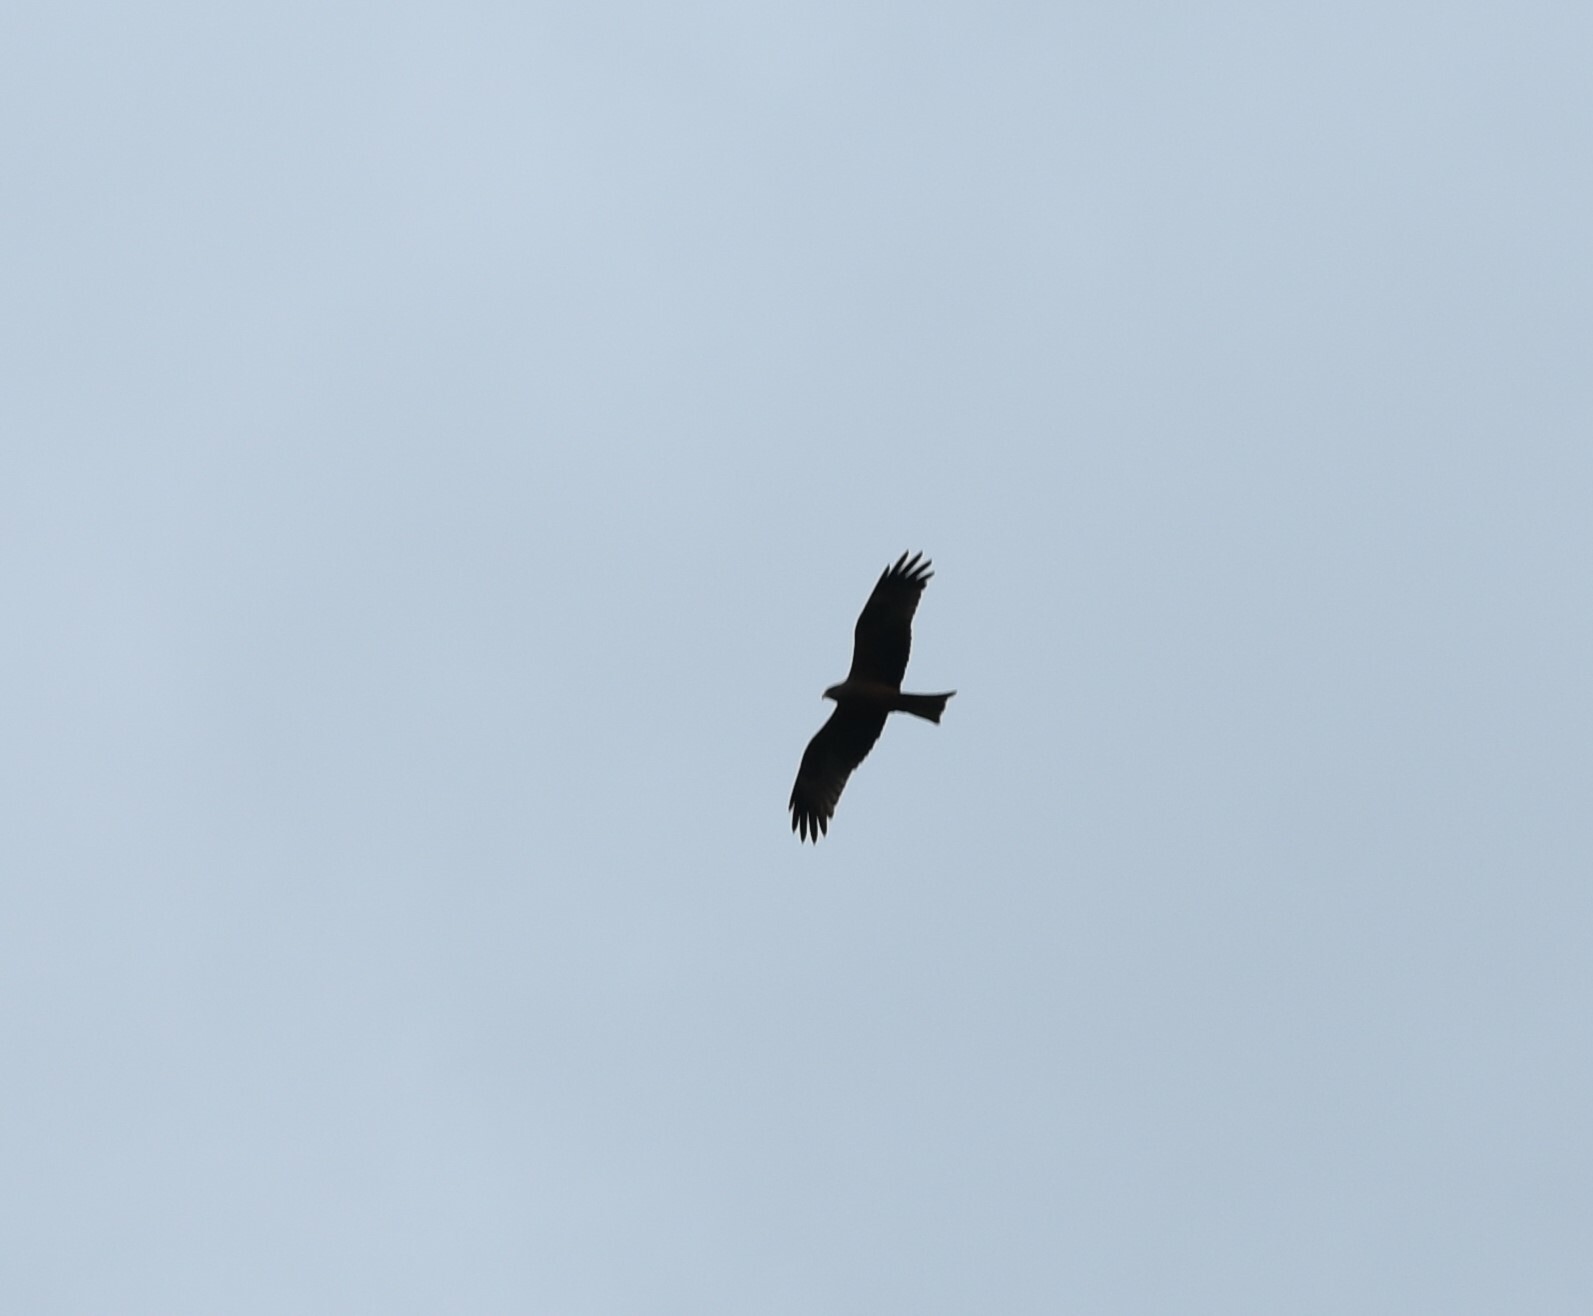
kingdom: Animalia
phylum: Chordata
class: Aves
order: Accipitriformes
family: Accipitridae
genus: Milvus
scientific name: Milvus migrans
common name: Black kite
